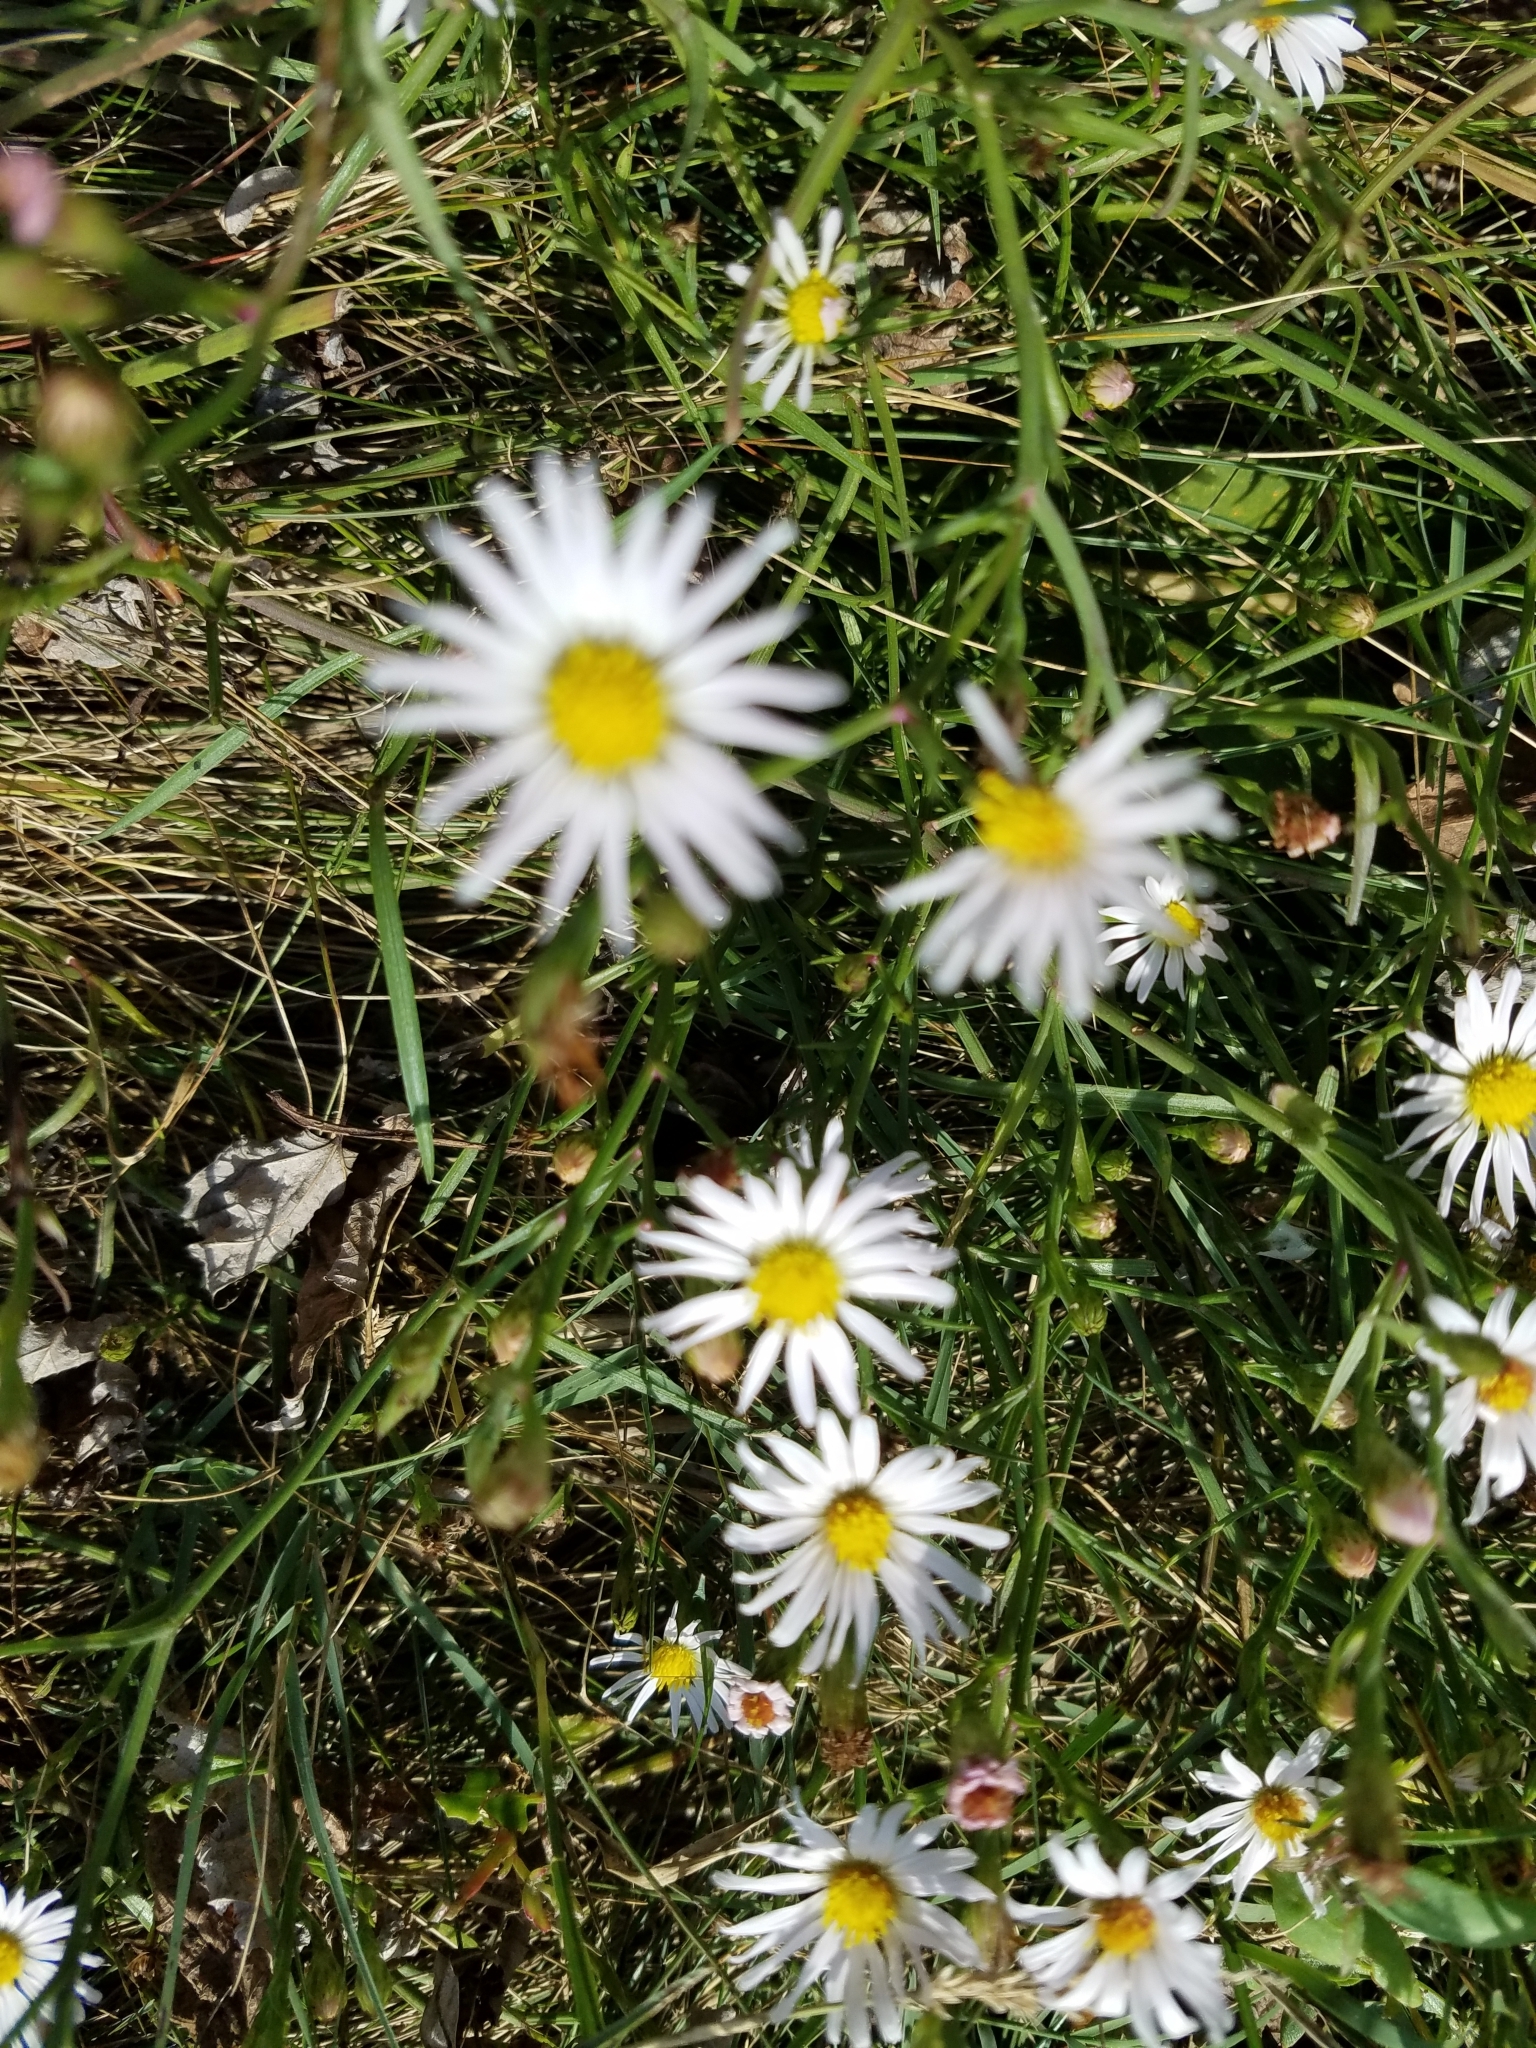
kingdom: Plantae
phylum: Tracheophyta
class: Magnoliopsida
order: Asterales
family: Asteraceae
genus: Symphyotrichum
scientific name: Symphyotrichum subulatum
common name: Annual saltmarsh aster
